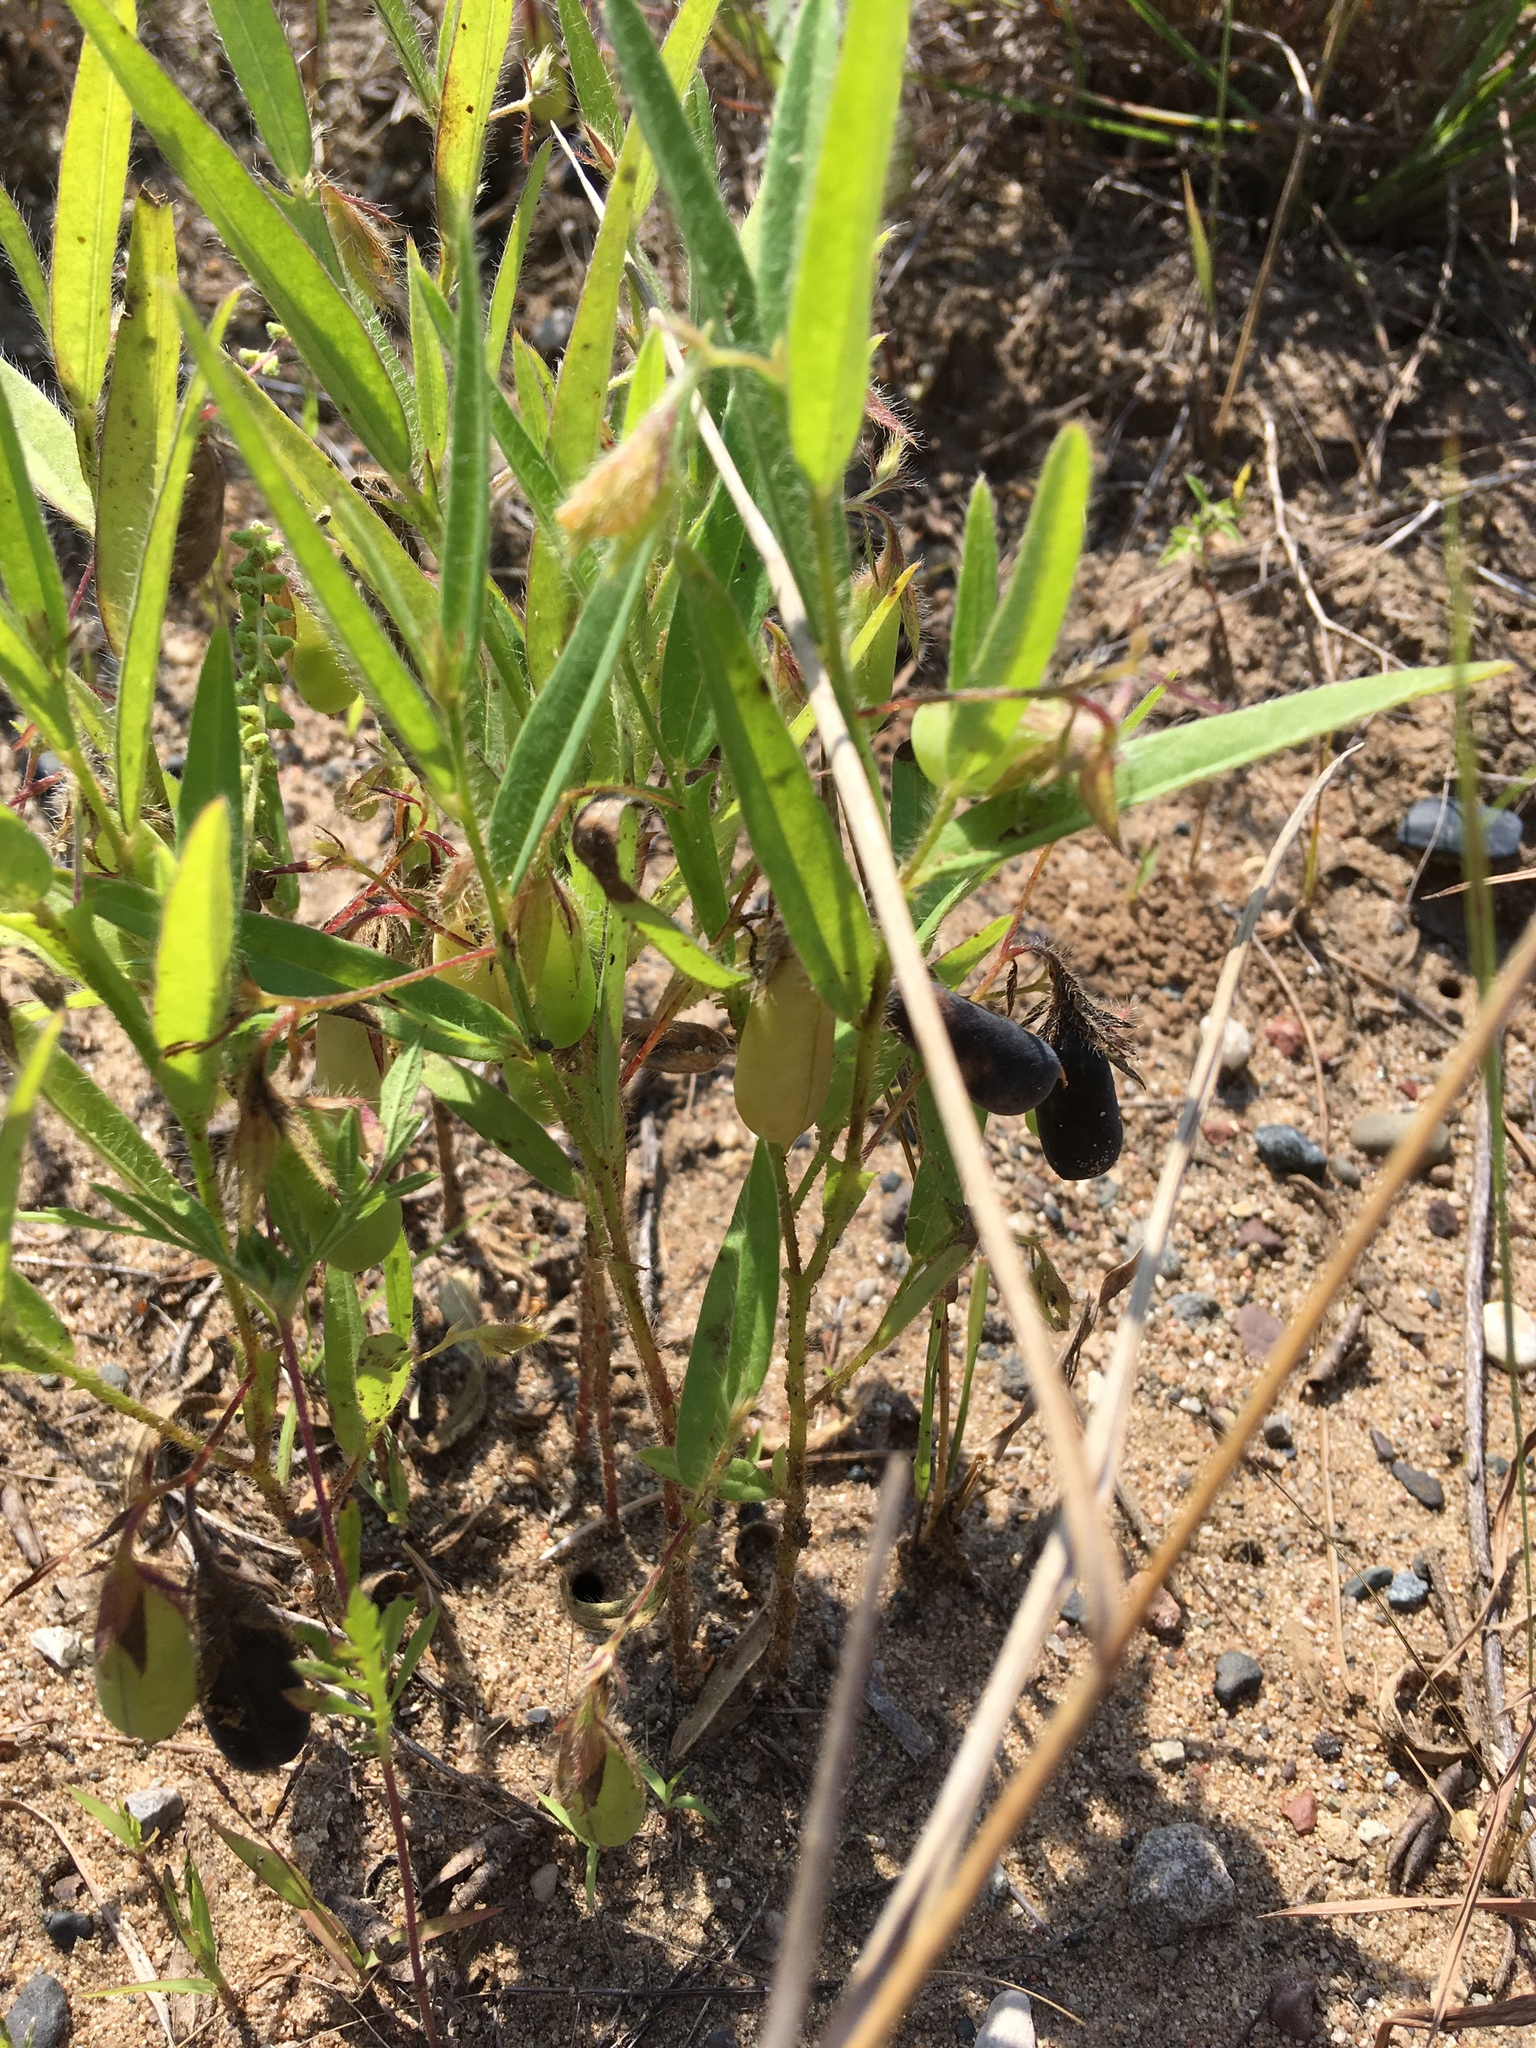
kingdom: Plantae
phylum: Tracheophyta
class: Magnoliopsida
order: Fabales
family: Fabaceae
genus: Crotalaria
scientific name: Crotalaria sagittalis
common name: Arrowhead rattlebox
